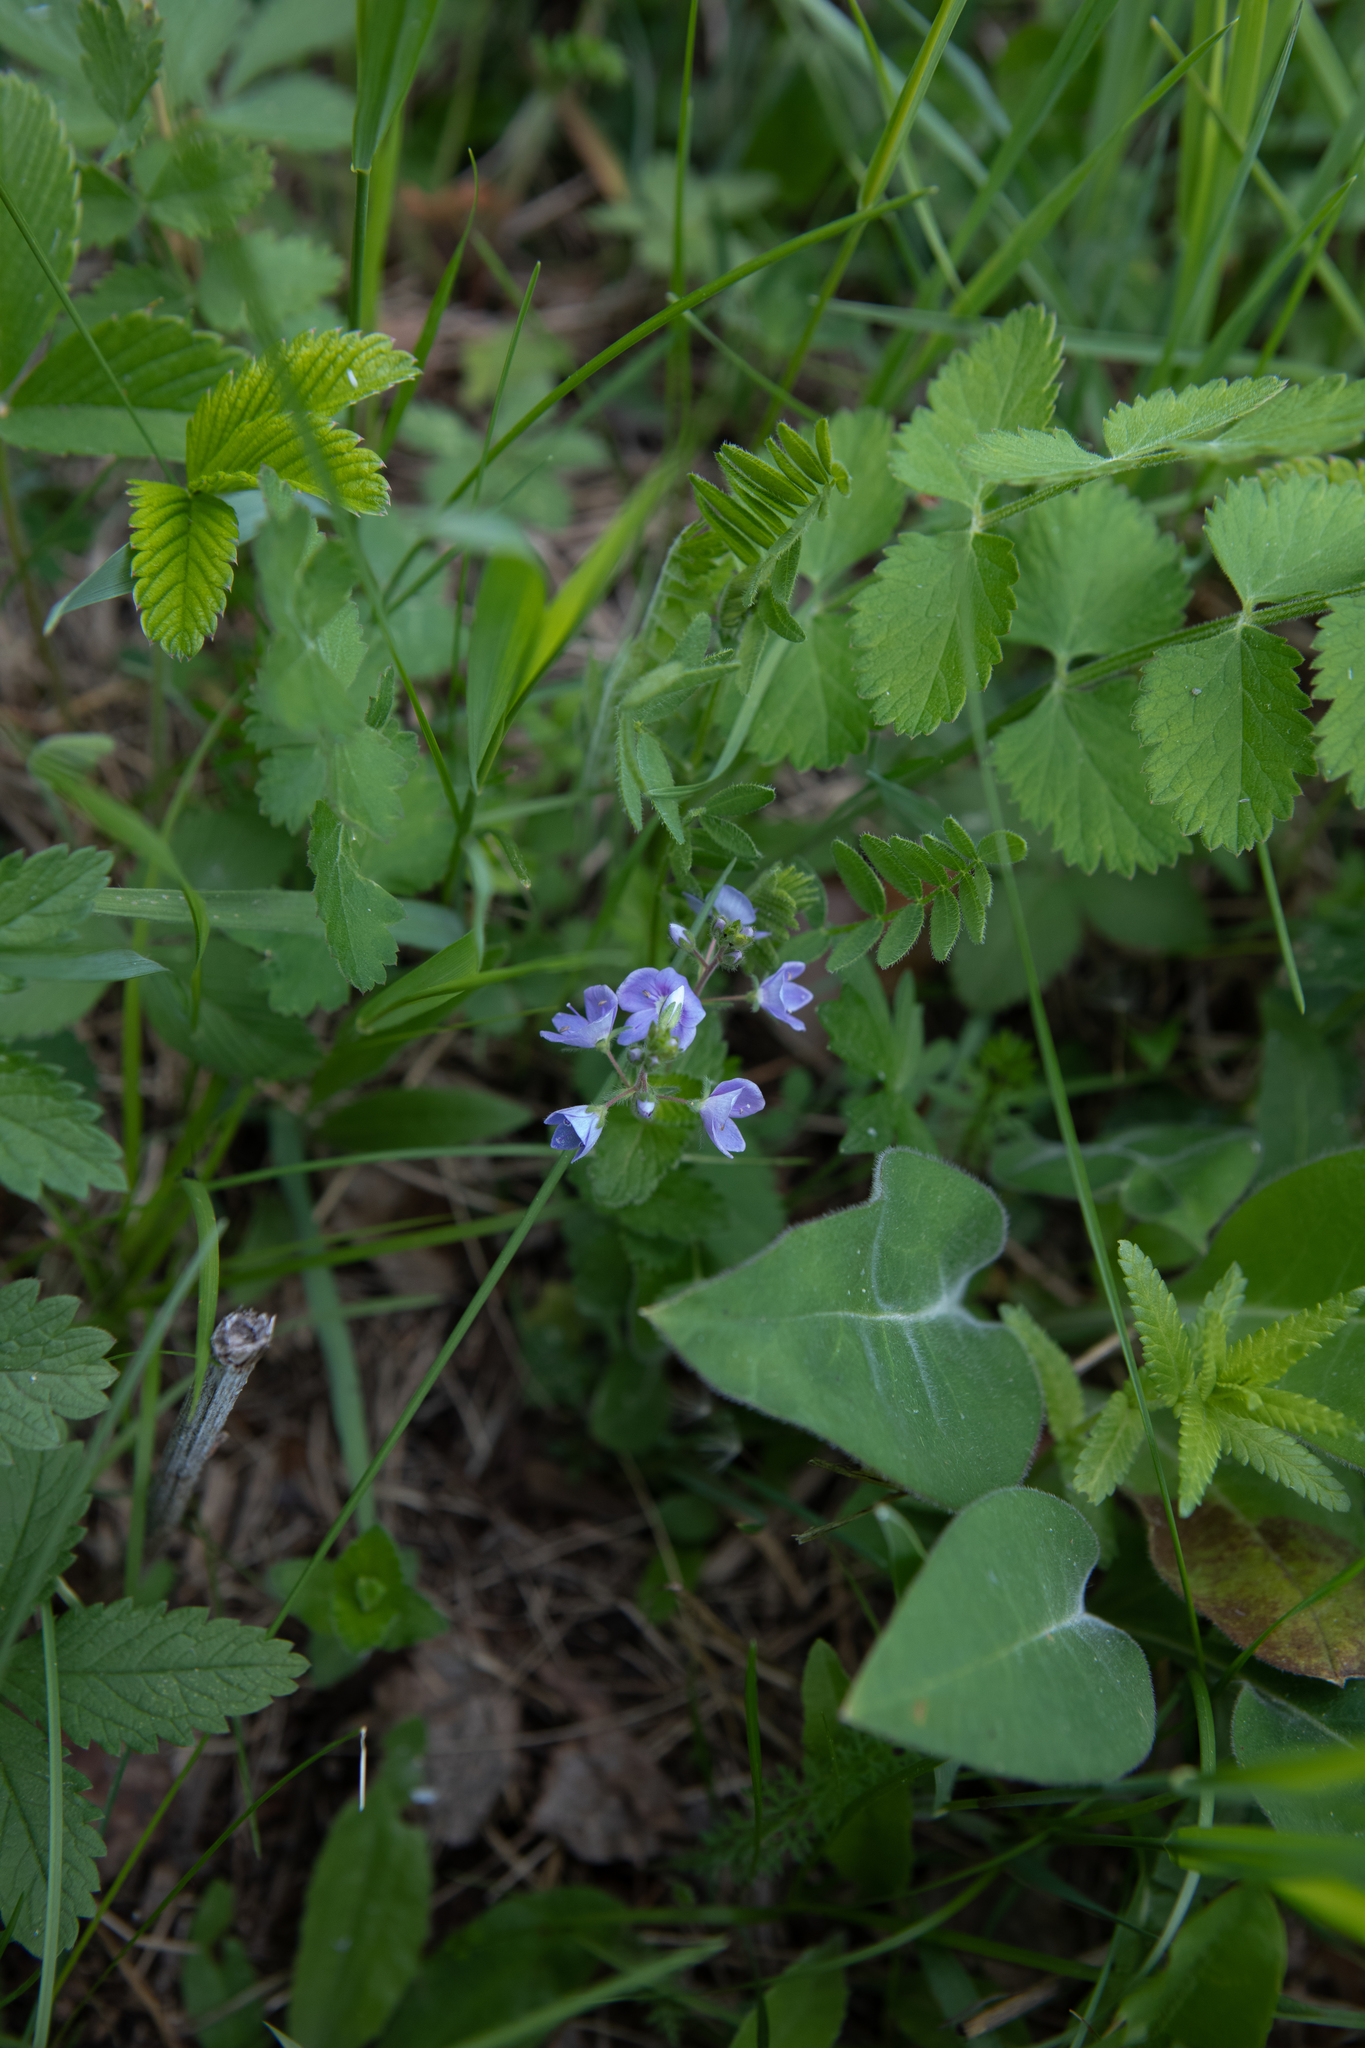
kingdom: Plantae
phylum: Tracheophyta
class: Magnoliopsida
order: Lamiales
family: Plantaginaceae
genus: Veronica
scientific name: Veronica chamaedrys
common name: Germander speedwell
